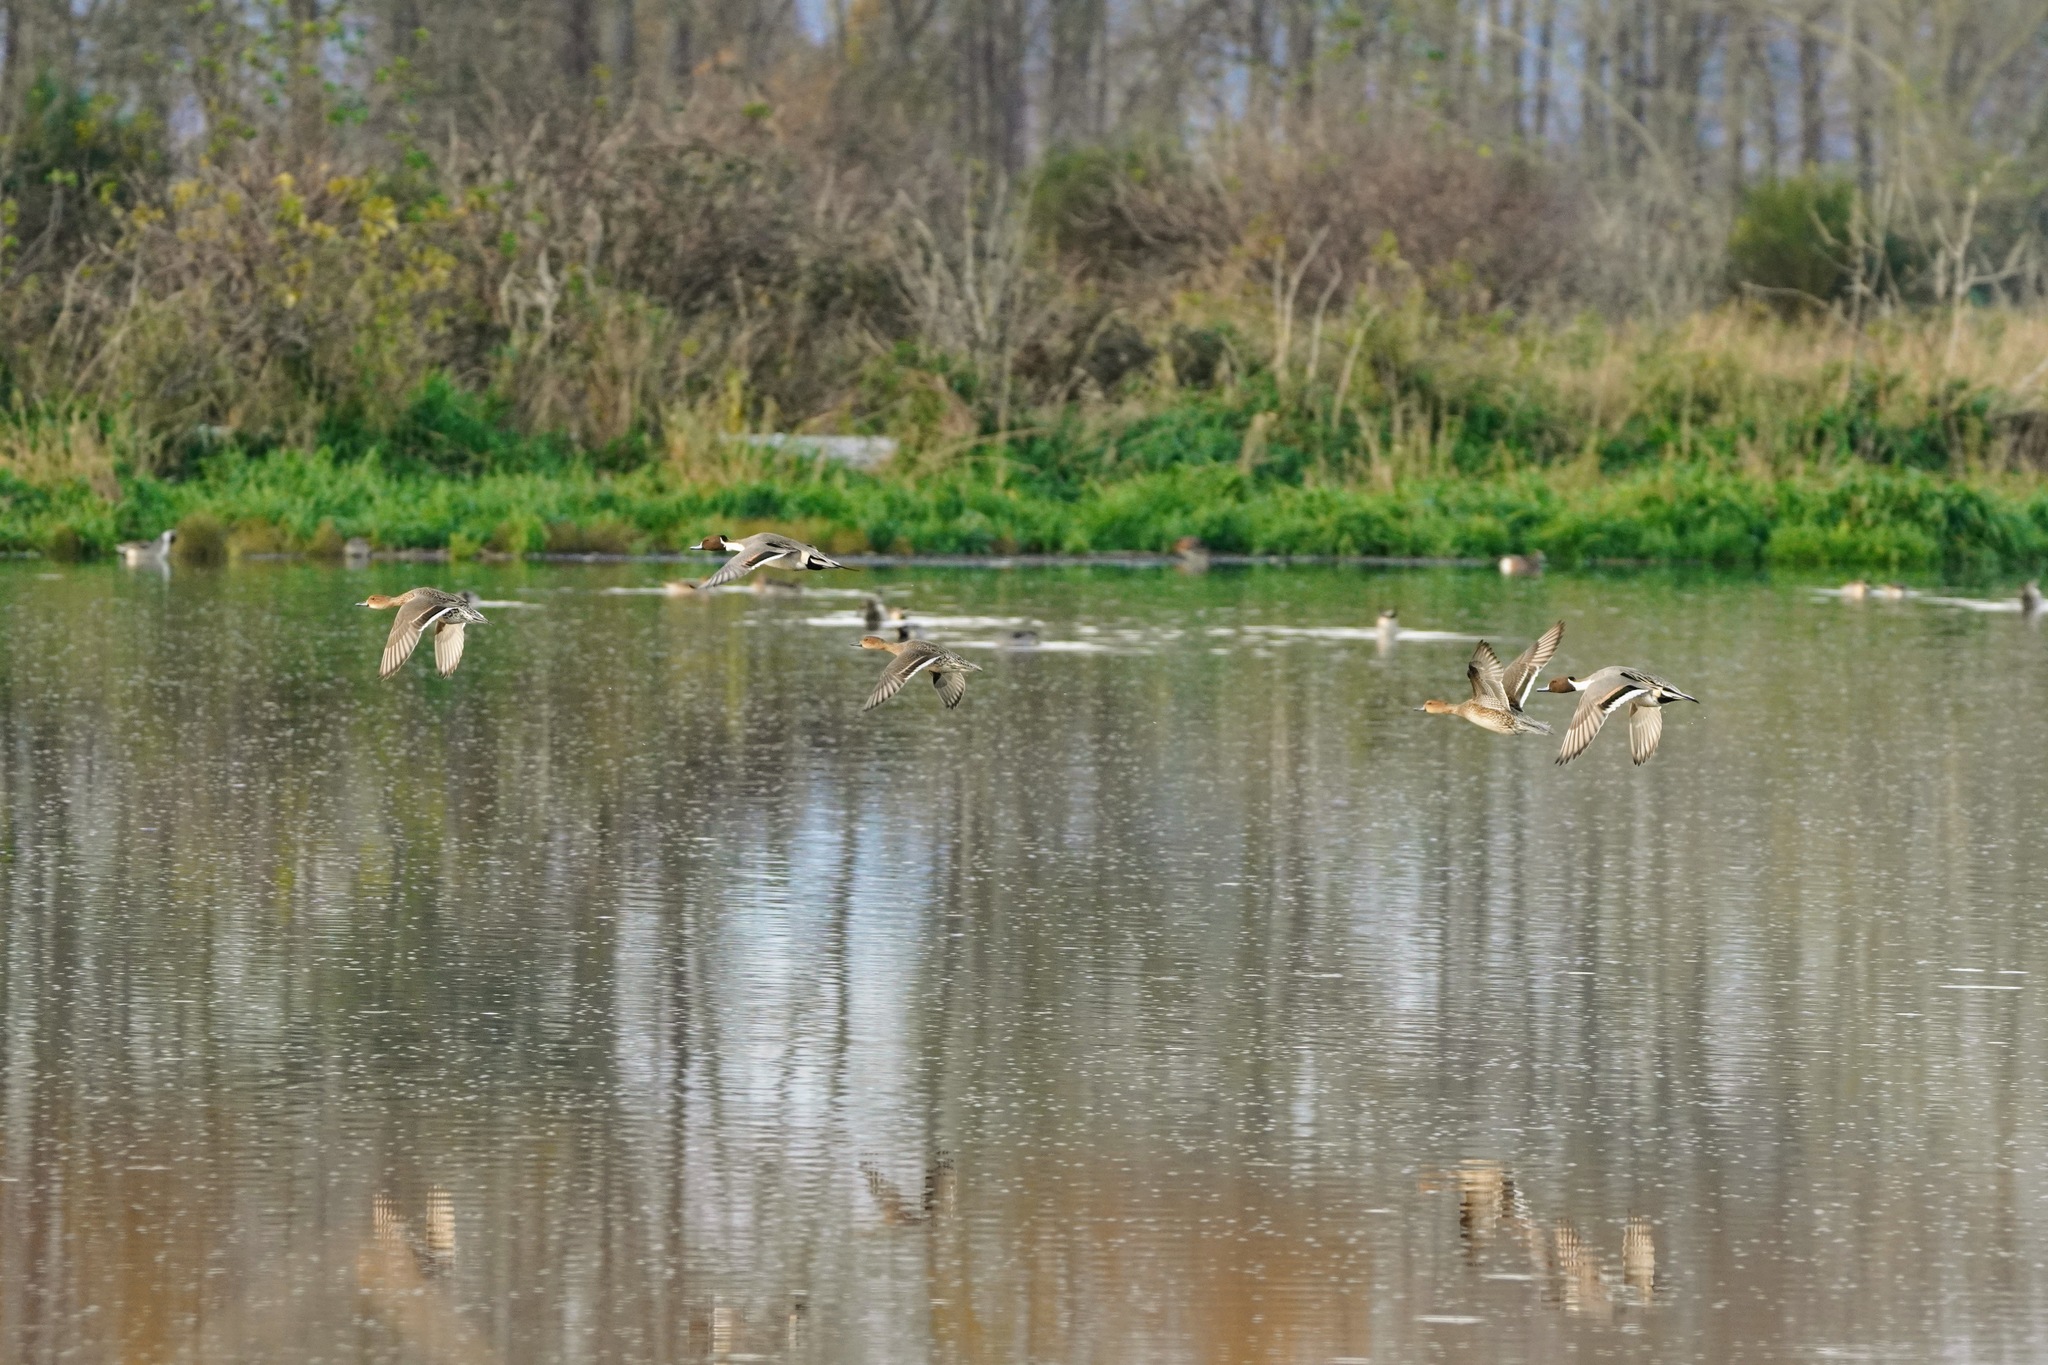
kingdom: Animalia
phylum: Chordata
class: Aves
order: Anseriformes
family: Anatidae
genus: Anas
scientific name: Anas acuta
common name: Northern pintail
